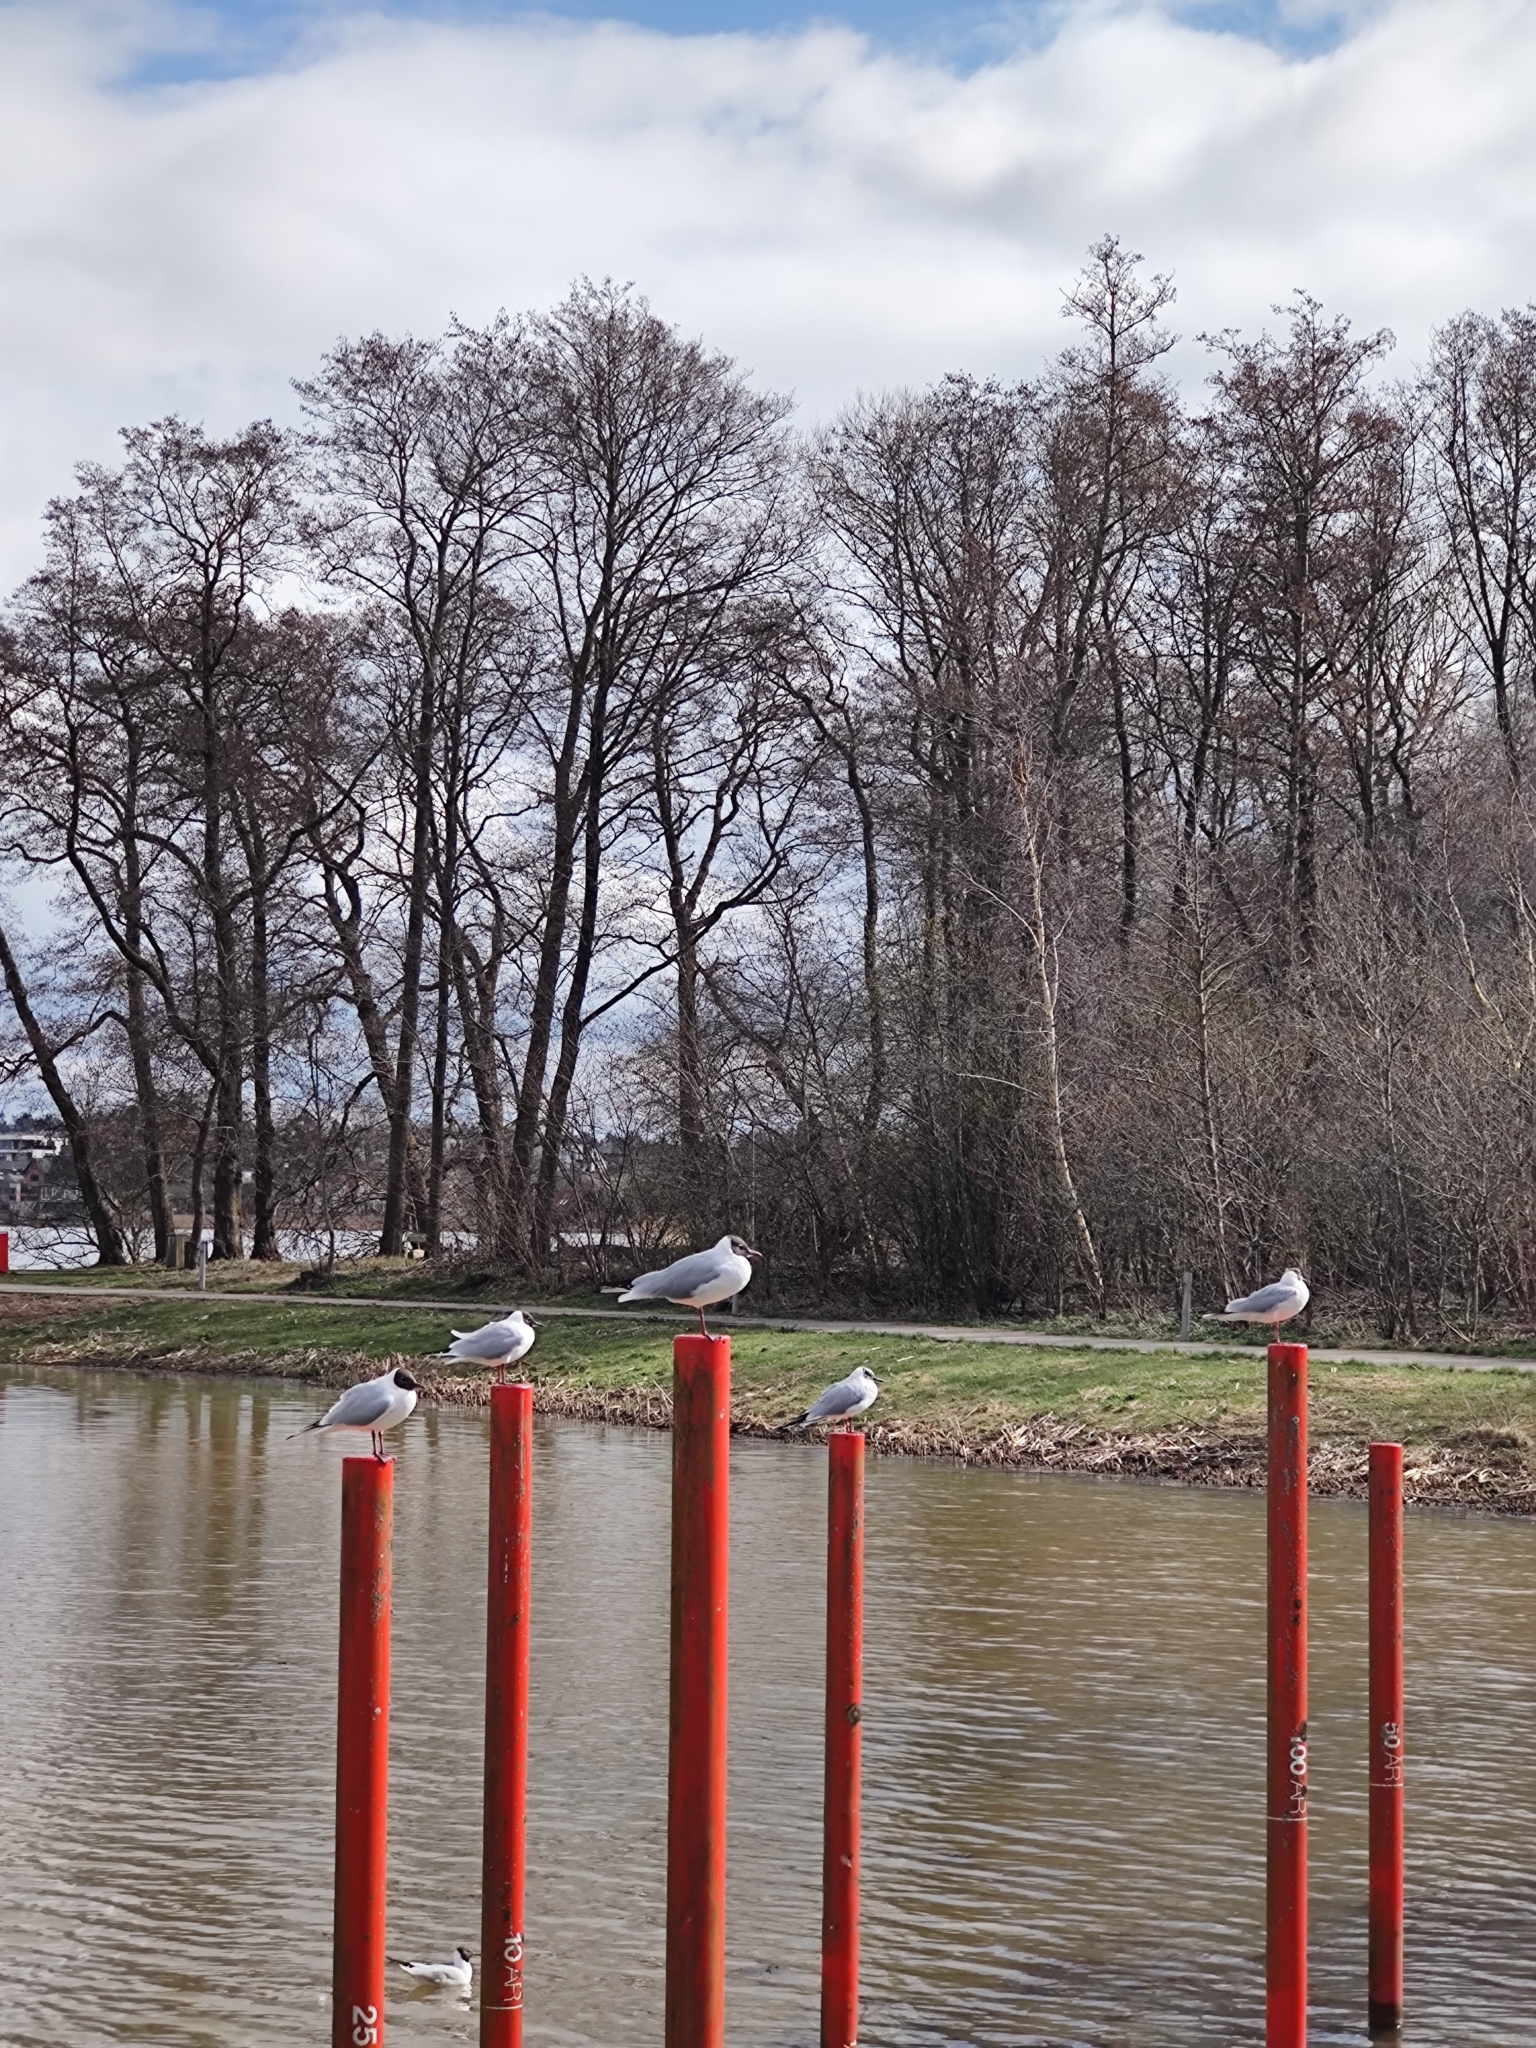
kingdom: Animalia
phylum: Chordata
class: Aves
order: Charadriiformes
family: Laridae
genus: Chroicocephalus
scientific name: Chroicocephalus ridibundus
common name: Black-headed gull
